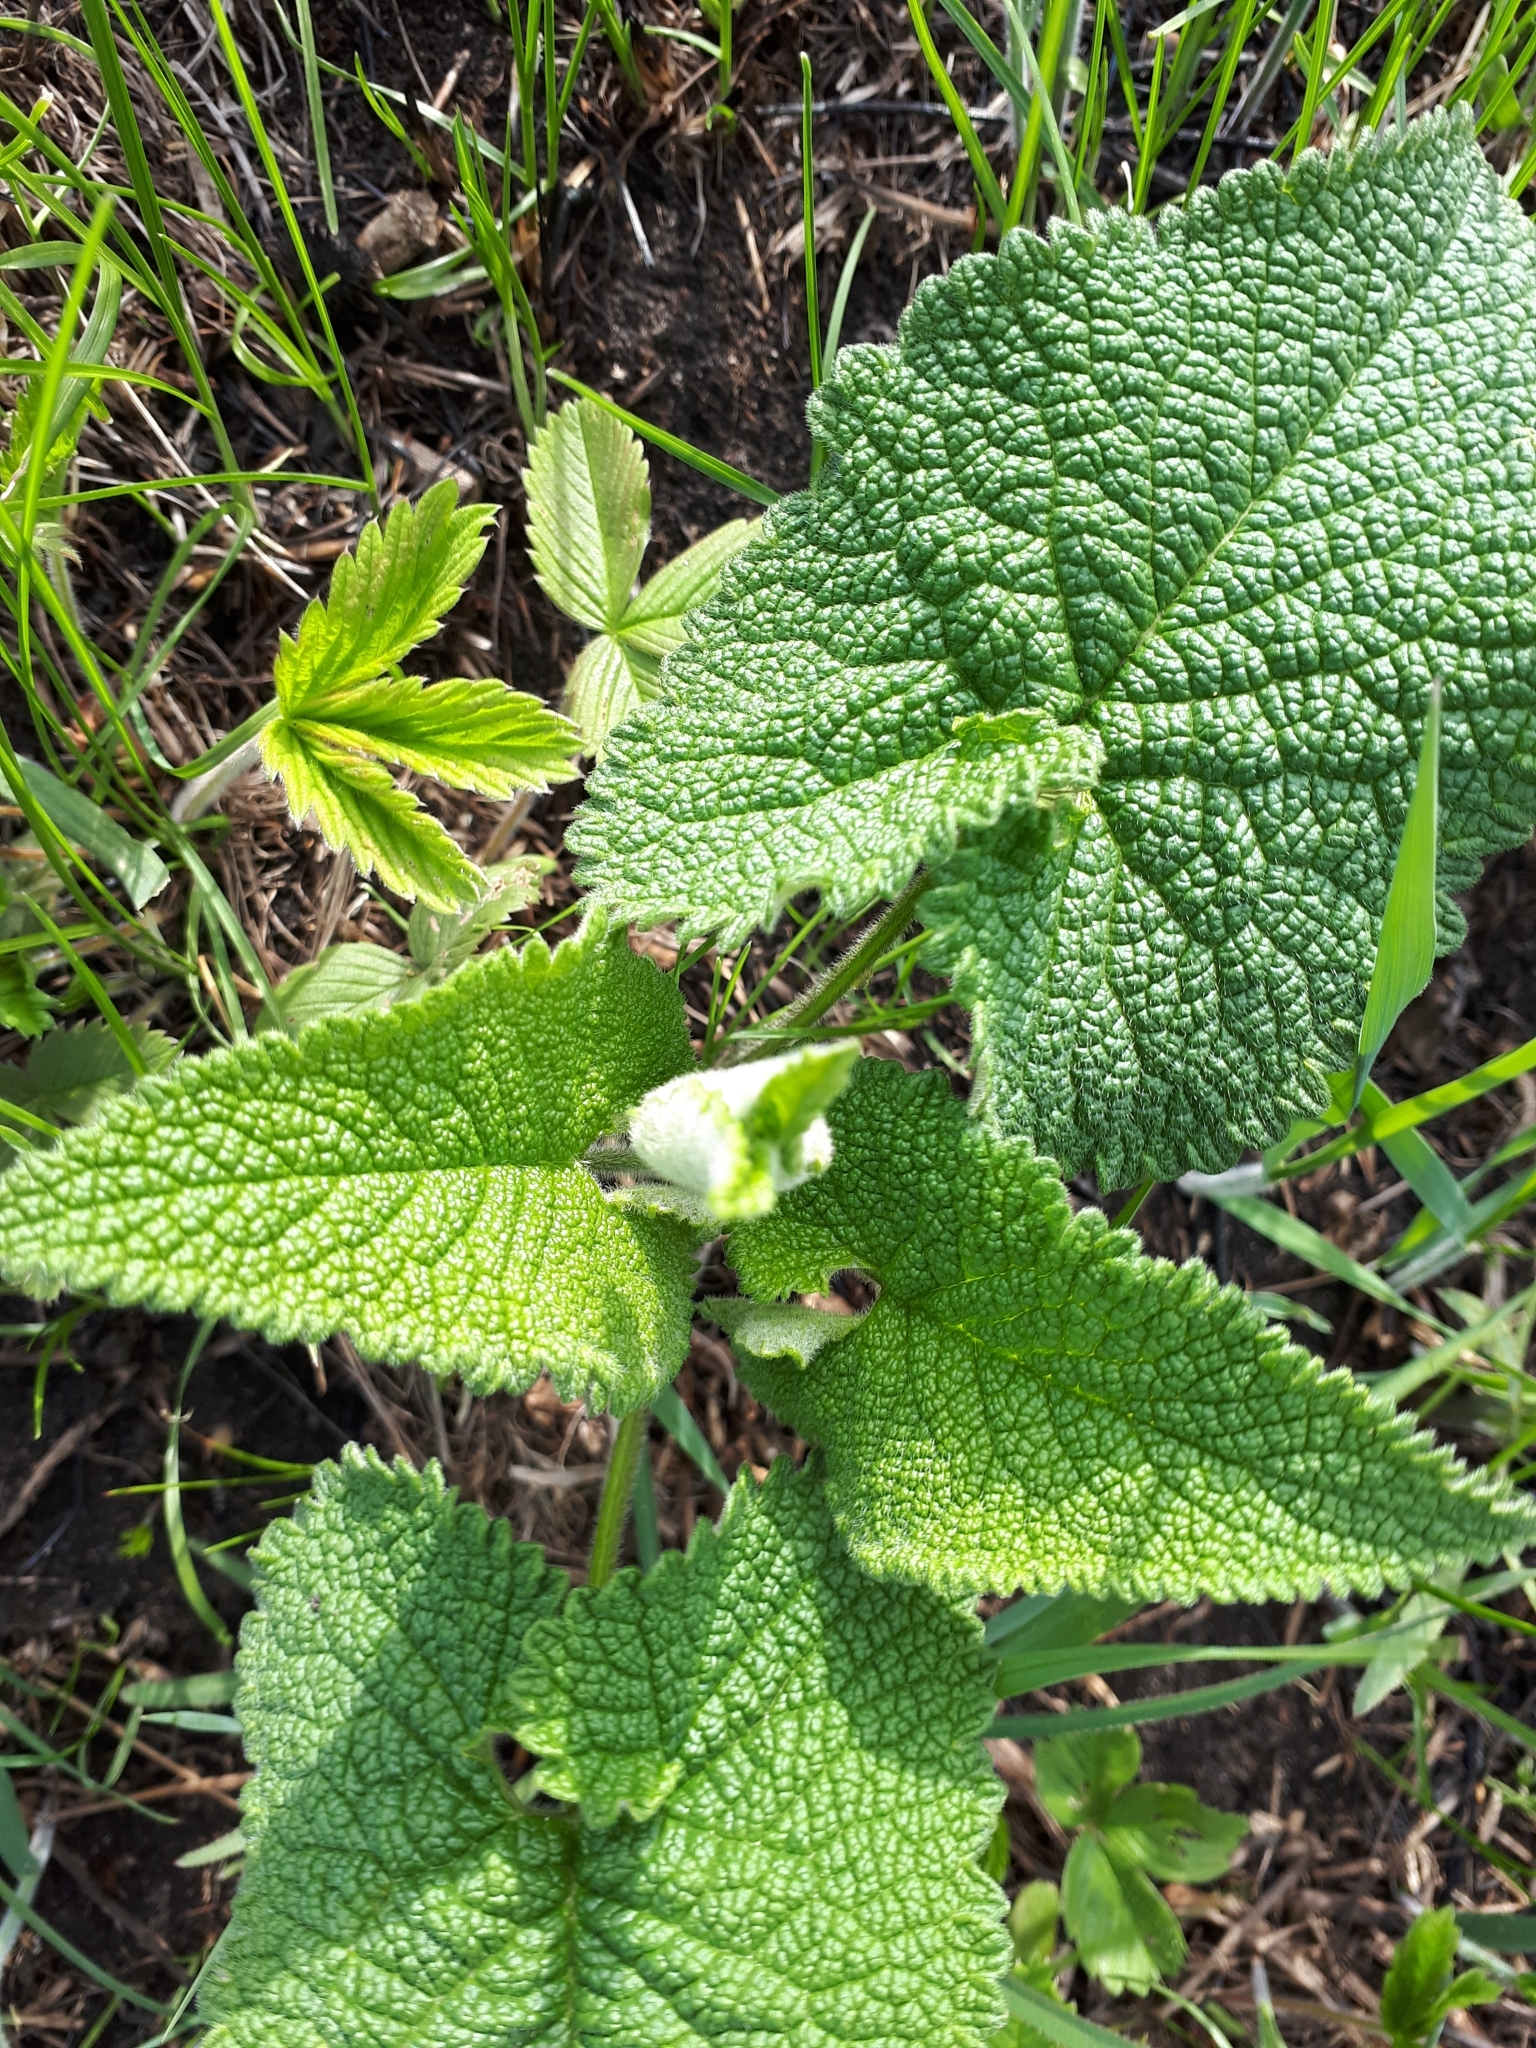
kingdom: Plantae
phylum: Tracheophyta
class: Magnoliopsida
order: Lamiales
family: Lamiaceae
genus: Phlomoides
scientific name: Phlomoides tuberosa
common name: Tuberous jerusalem sage
